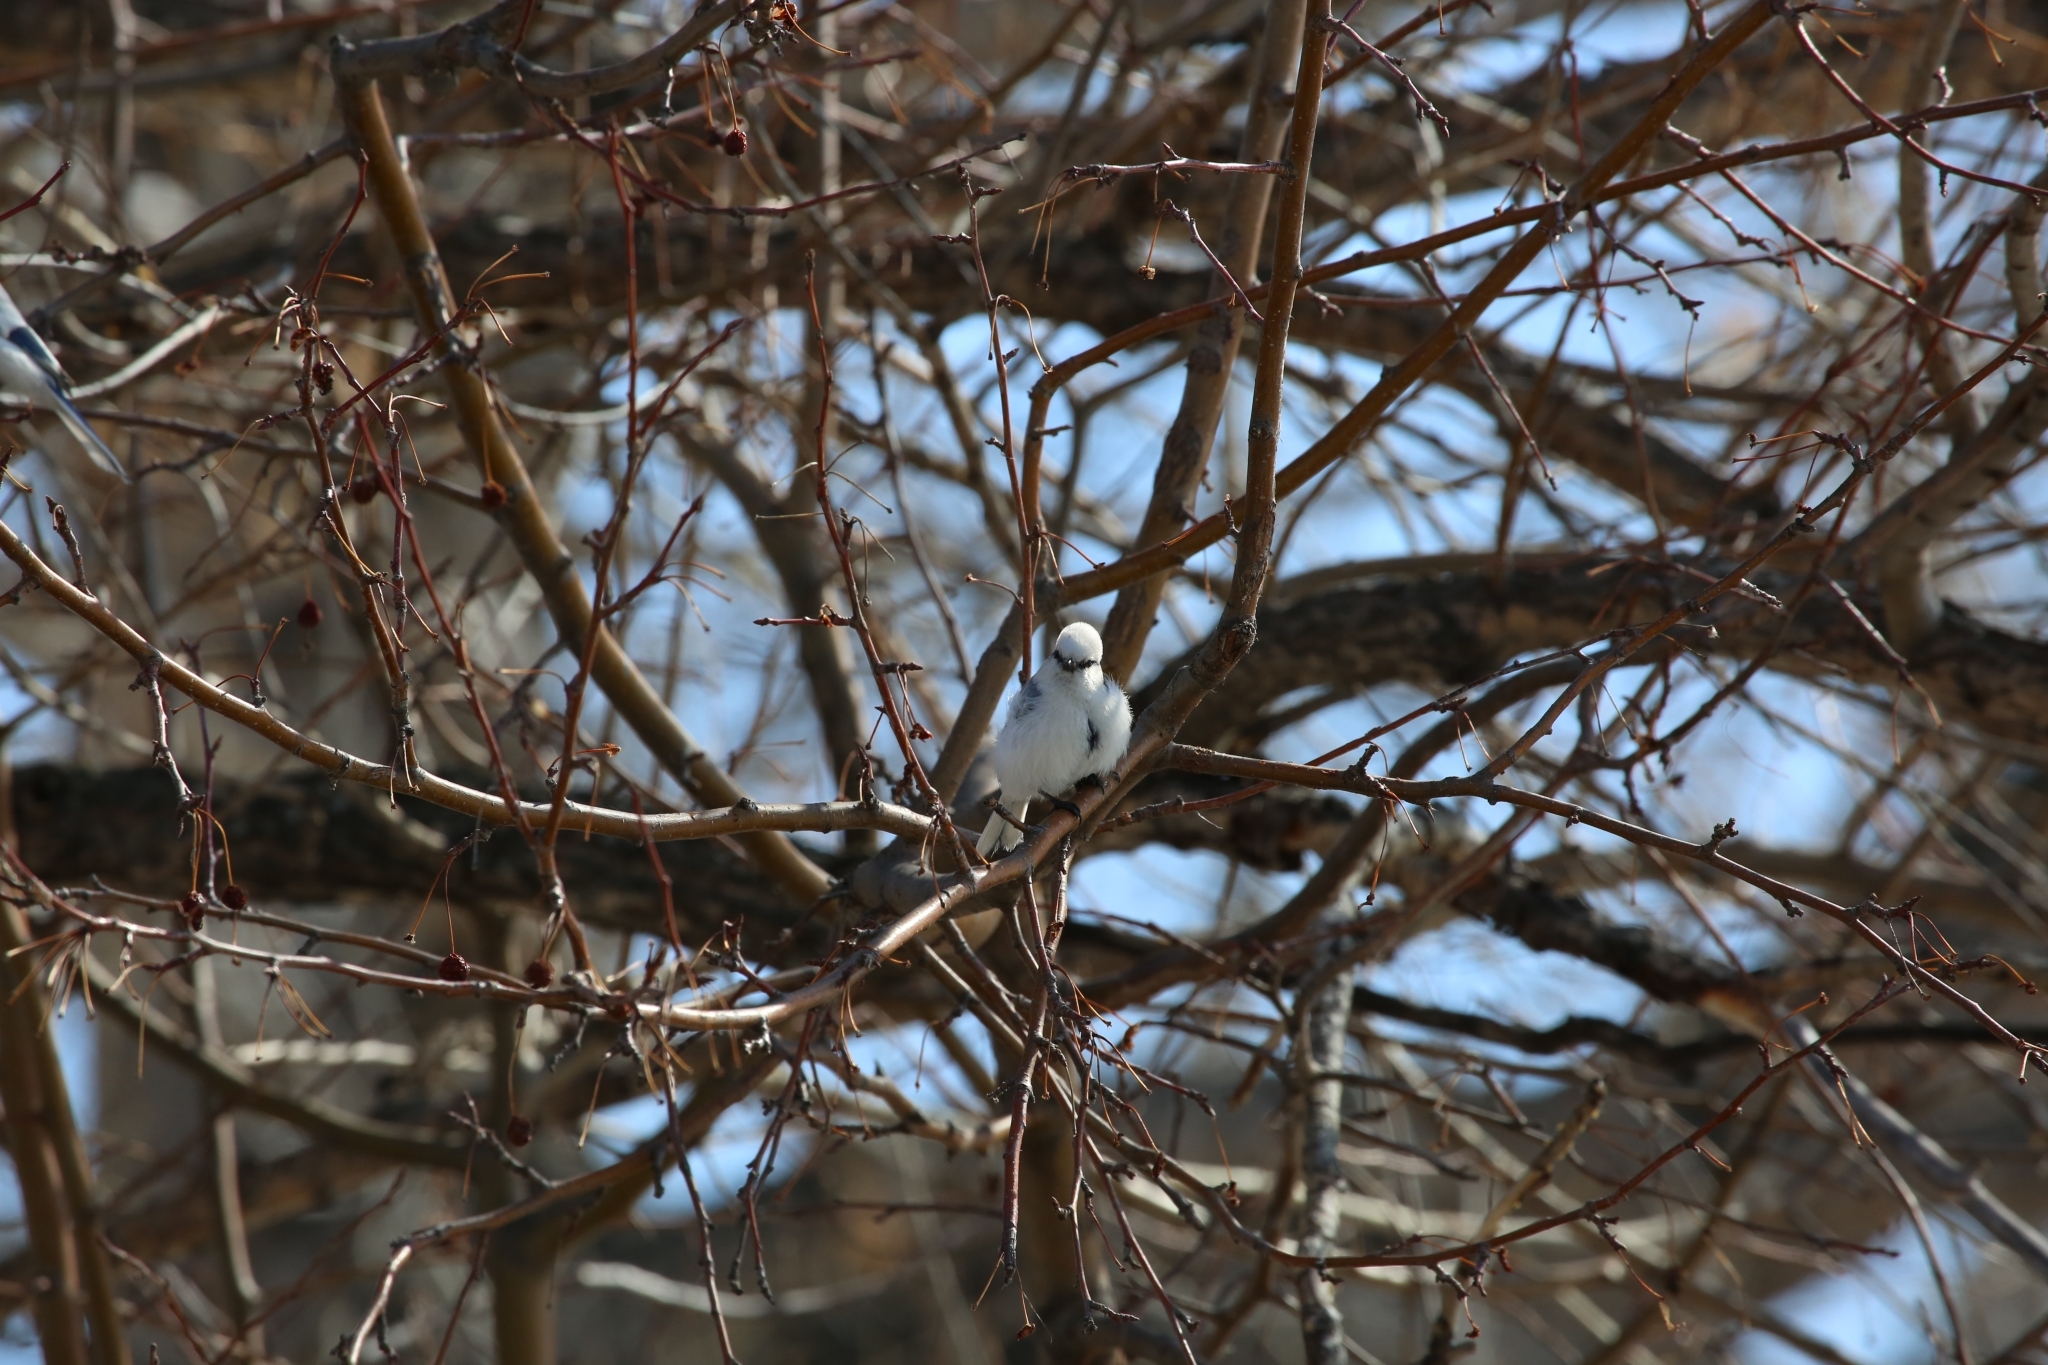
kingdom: Animalia
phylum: Chordata
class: Aves
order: Passeriformes
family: Paridae
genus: Cyanistes
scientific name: Cyanistes cyanus
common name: Azure tit
